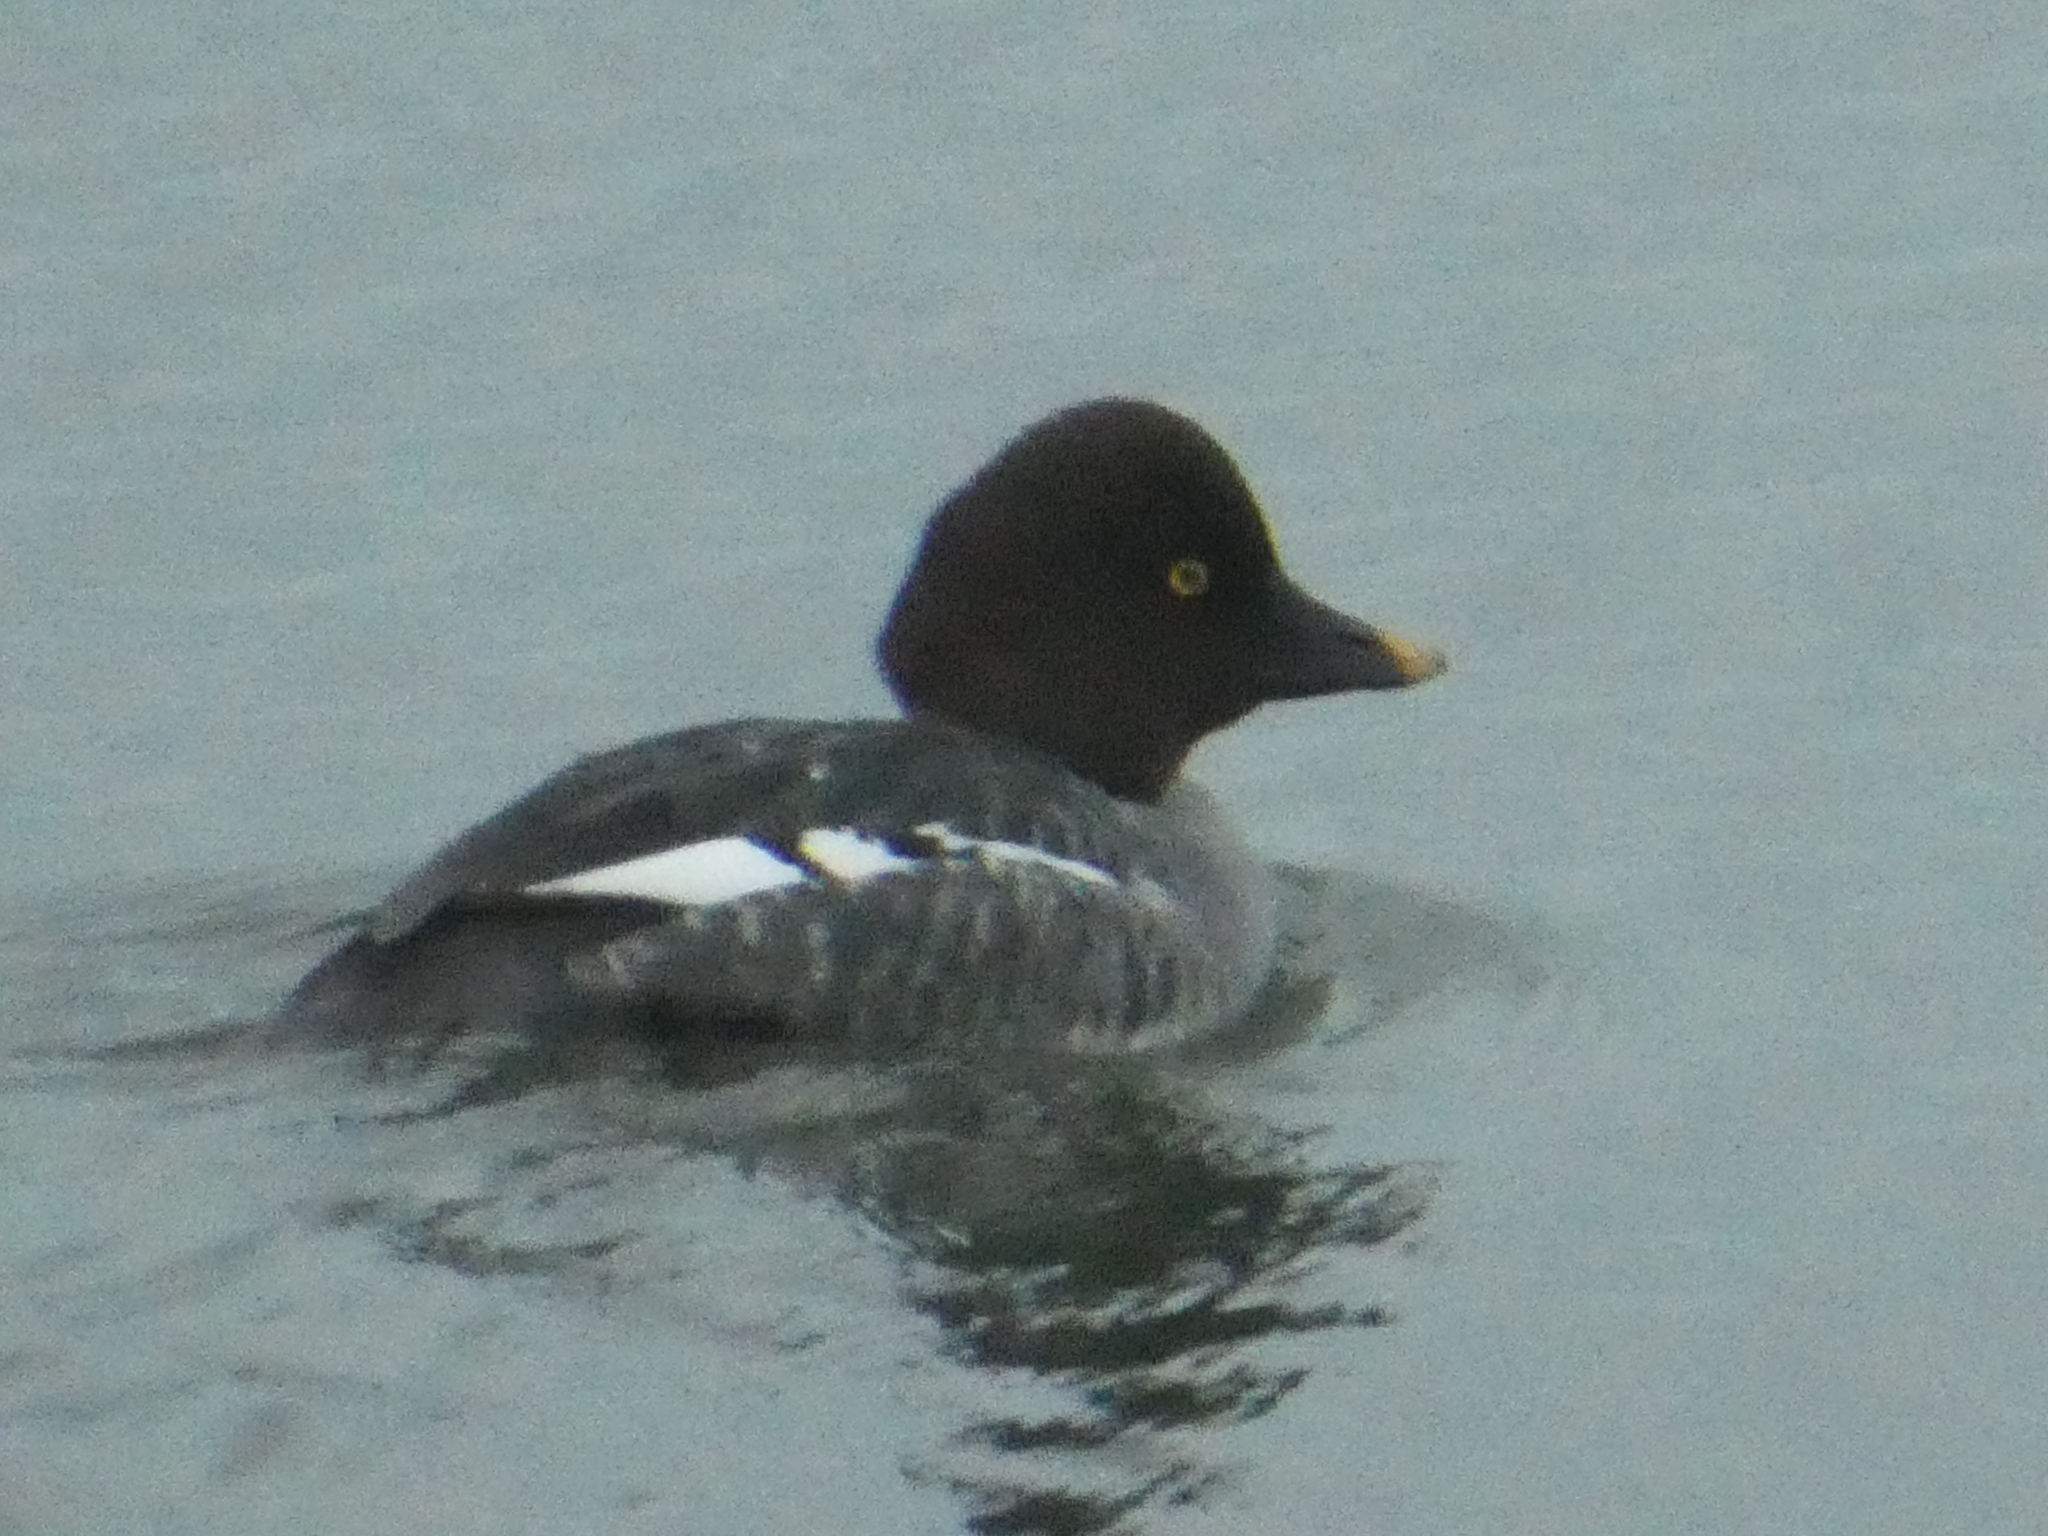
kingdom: Animalia
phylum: Chordata
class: Aves
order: Anseriformes
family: Anatidae
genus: Bucephala
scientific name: Bucephala clangula
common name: Common goldeneye
